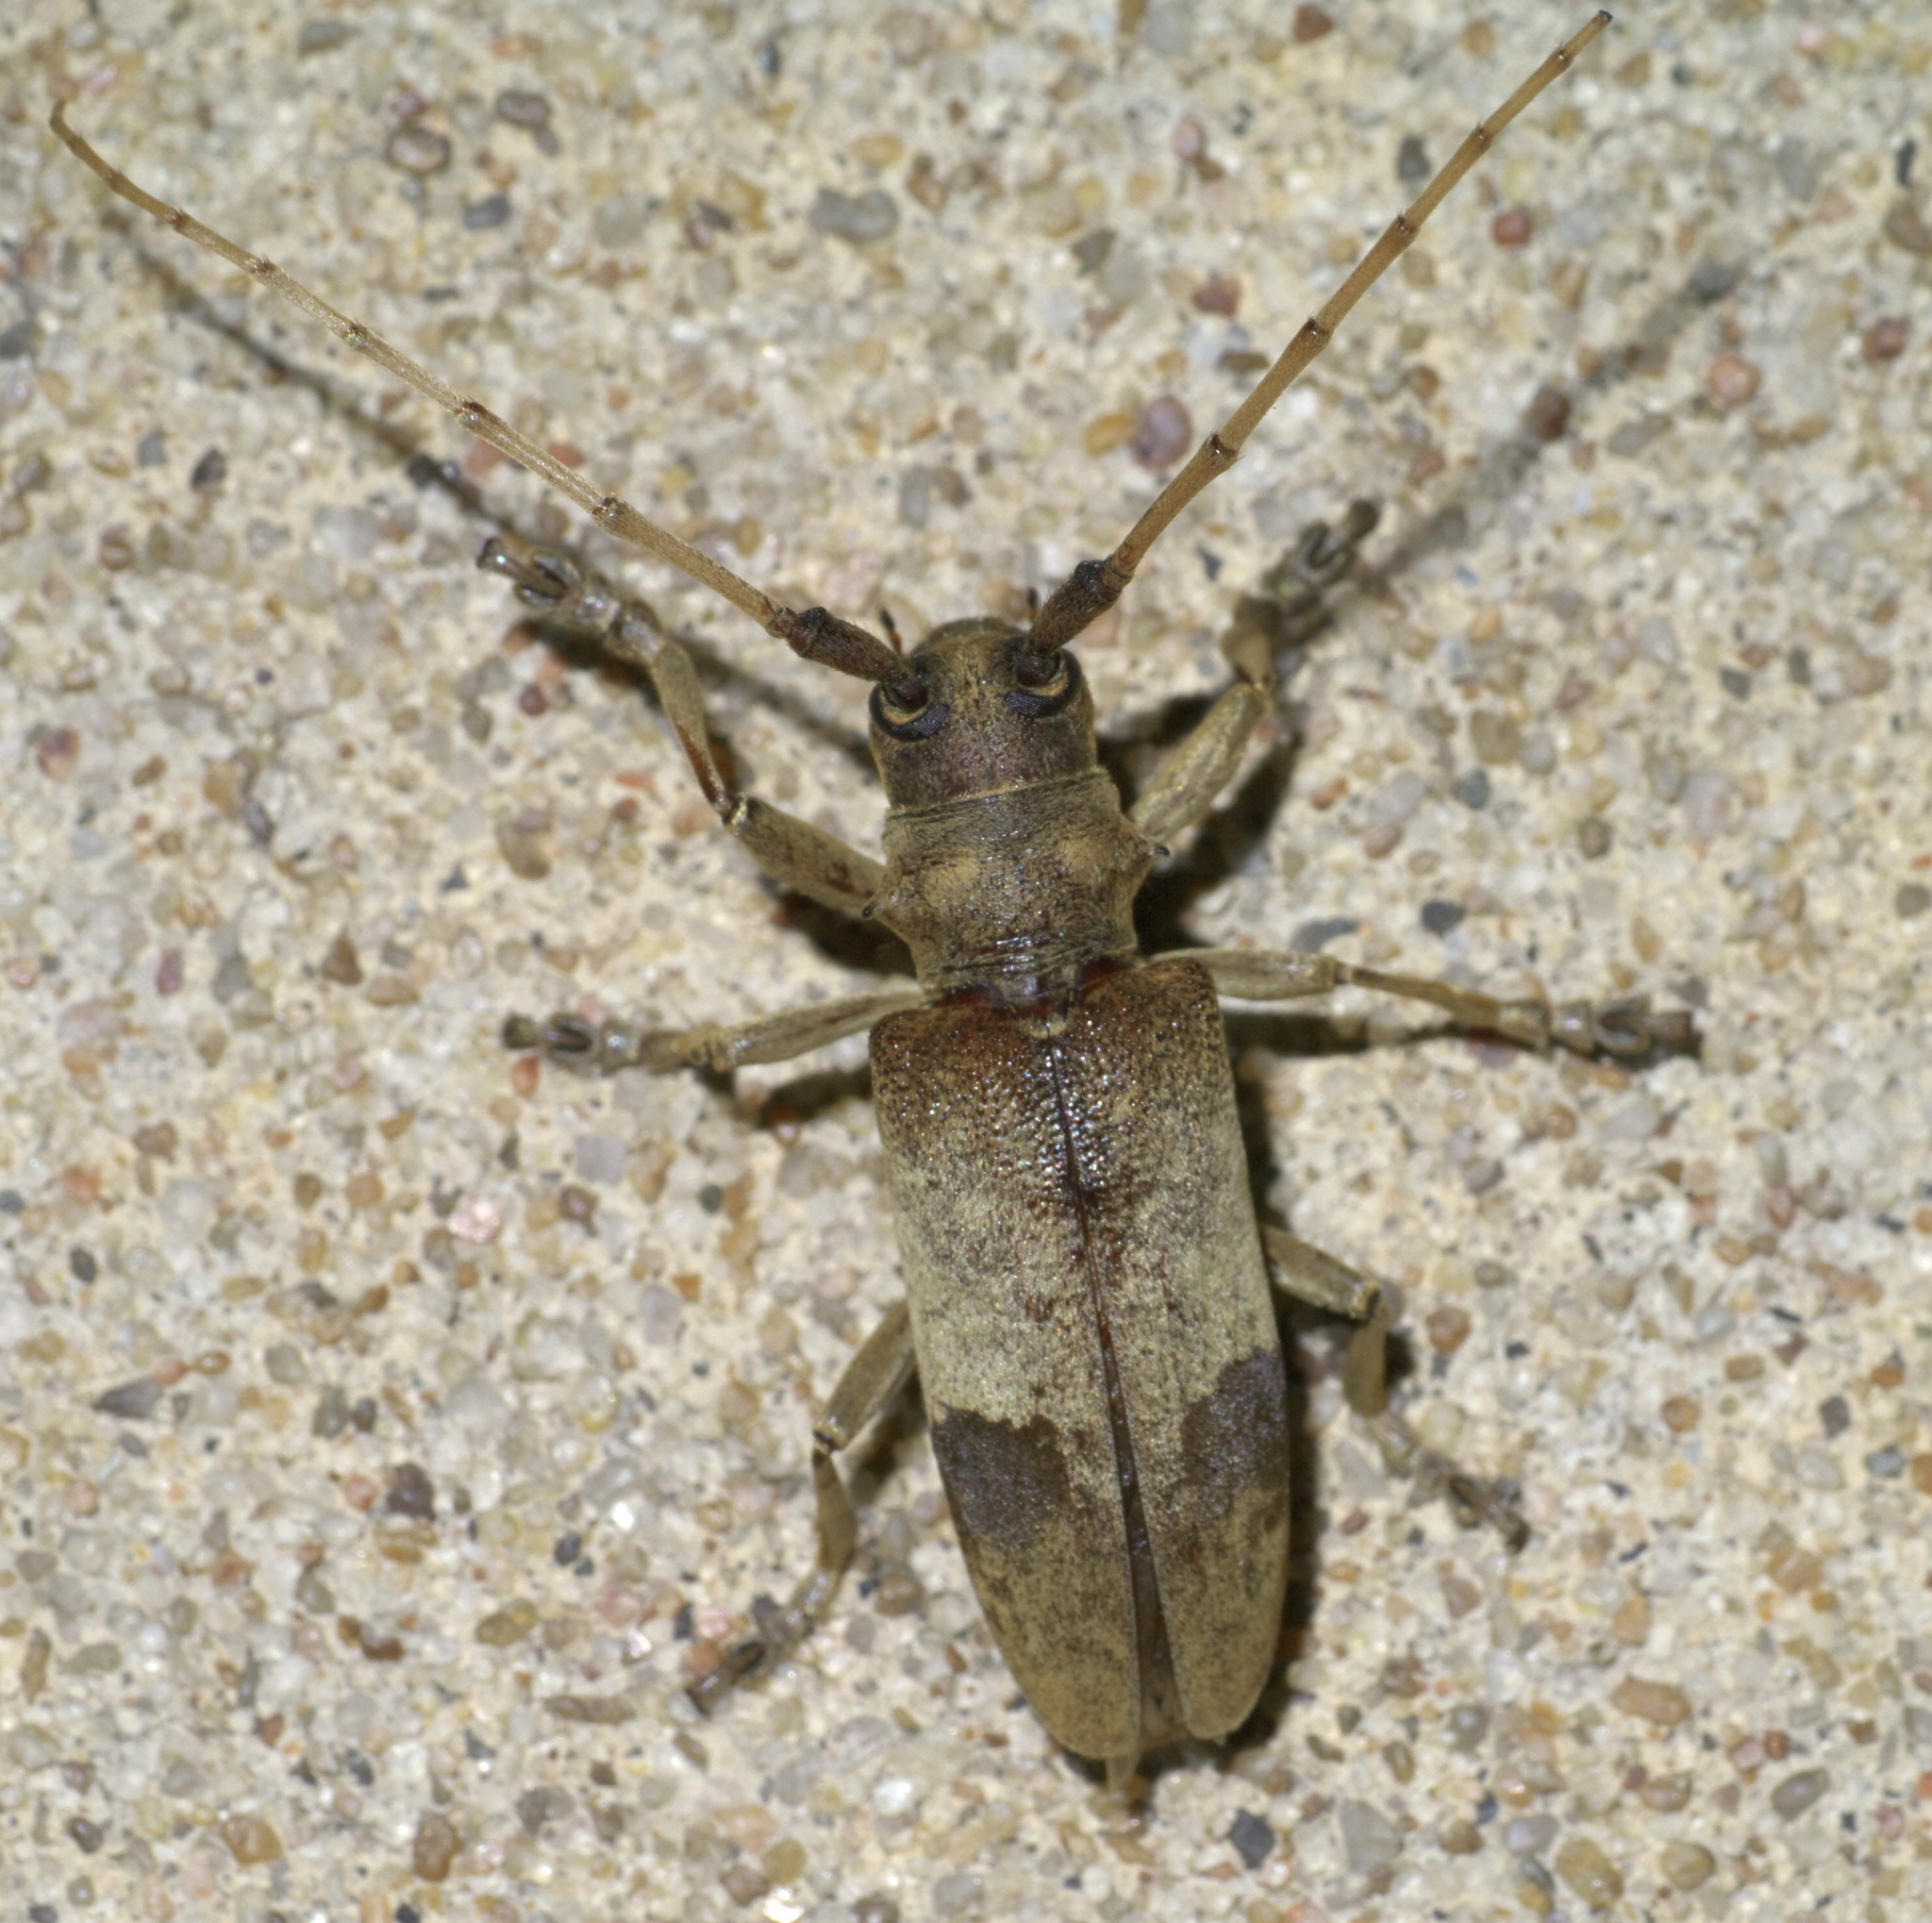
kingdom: Animalia
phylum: Arthropoda
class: Insecta
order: Coleoptera
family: Cerambycidae
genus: Goes
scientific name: Goes pulcher
